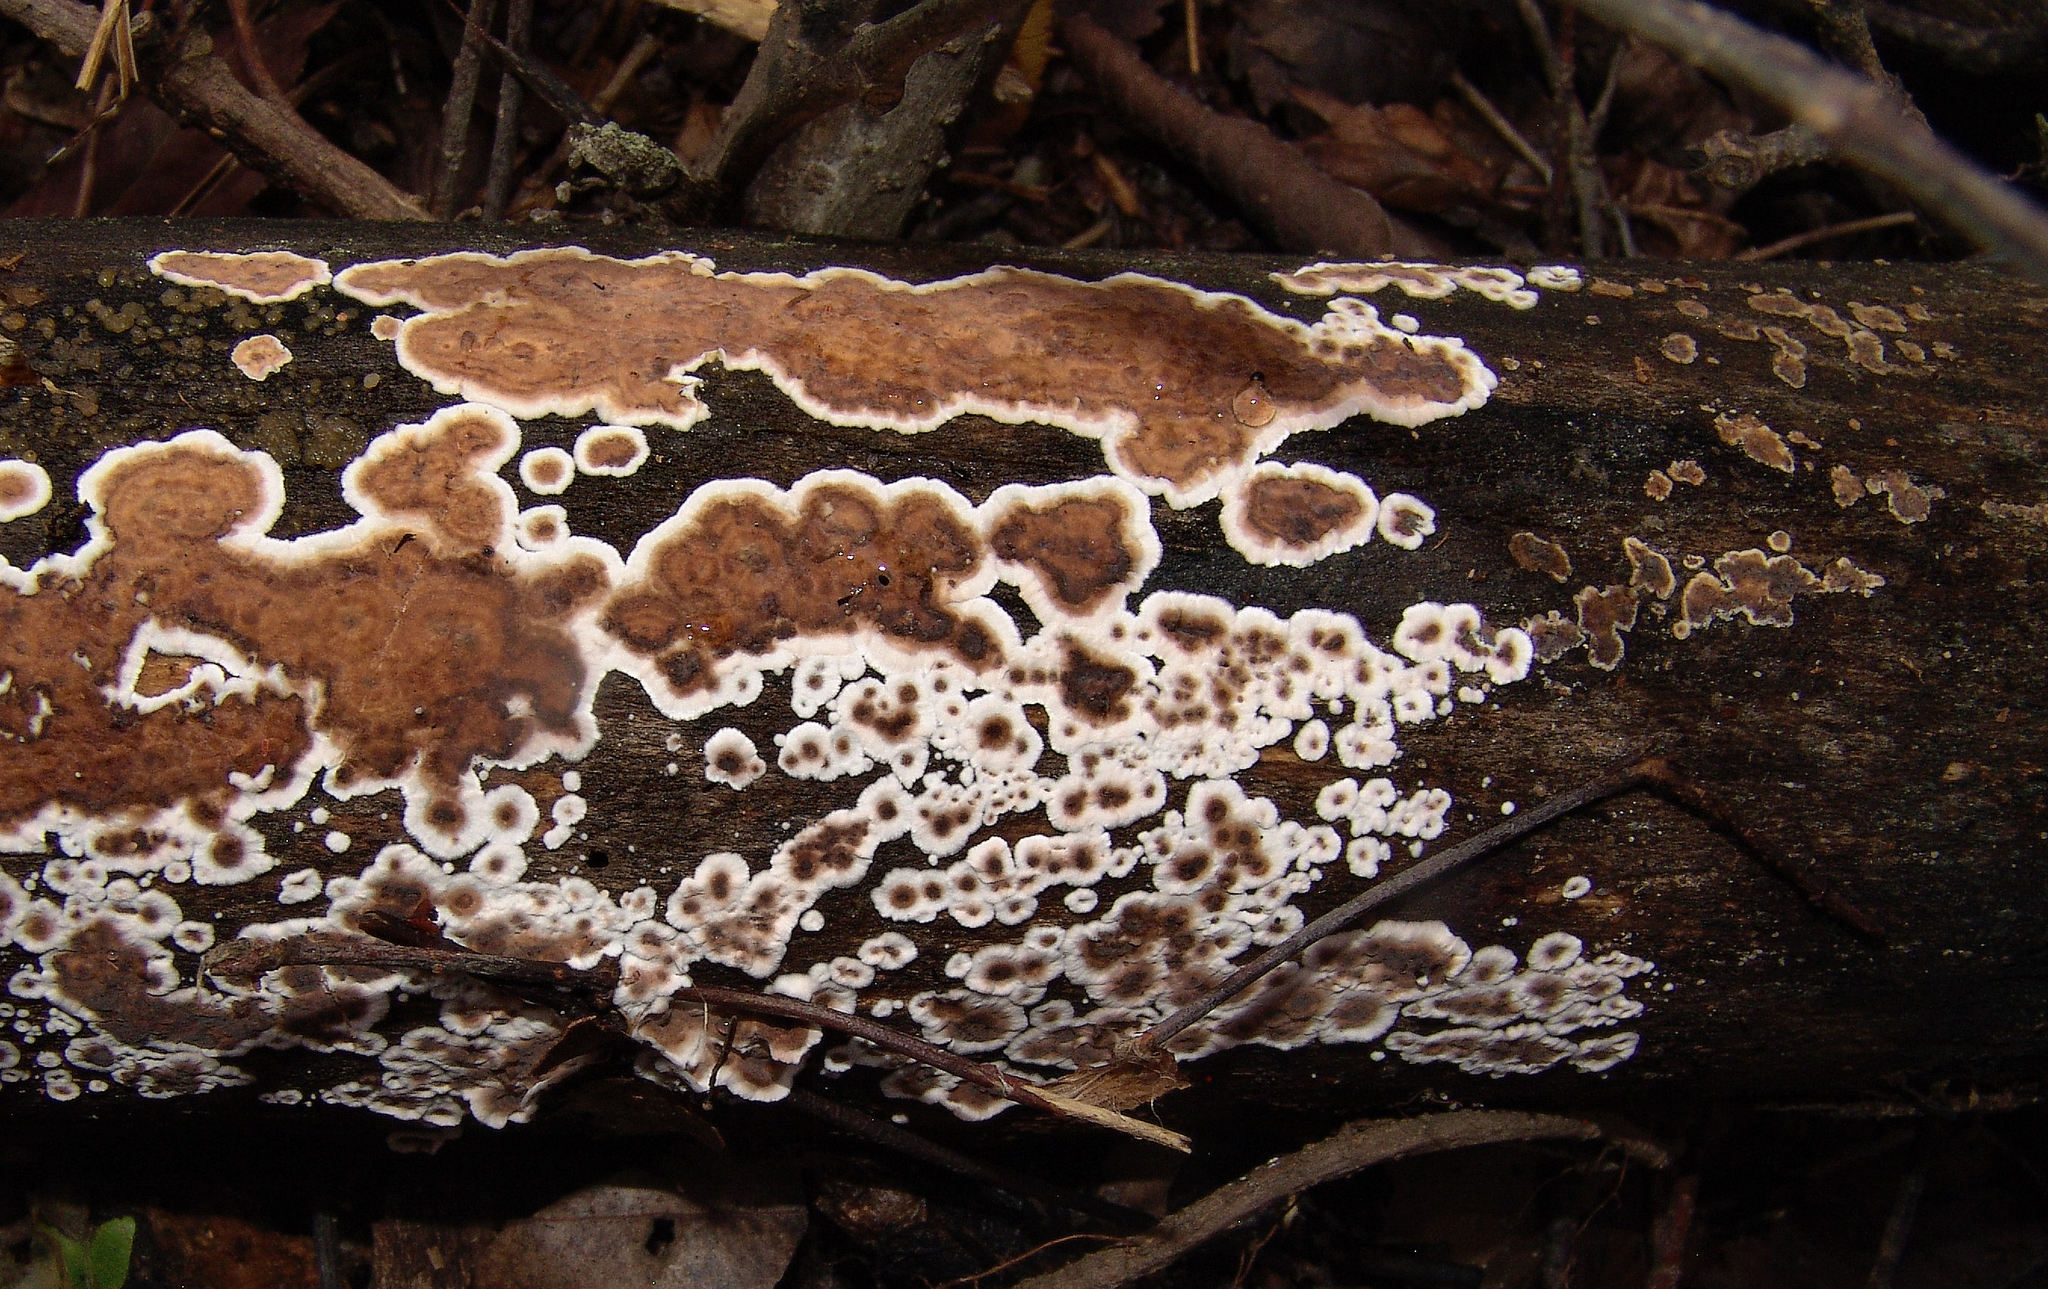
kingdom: Fungi
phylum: Basidiomycota
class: Agaricomycetes
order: Russulales
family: Peniophoraceae
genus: Peniophora
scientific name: Peniophora albobadia
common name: Giraffe spots
